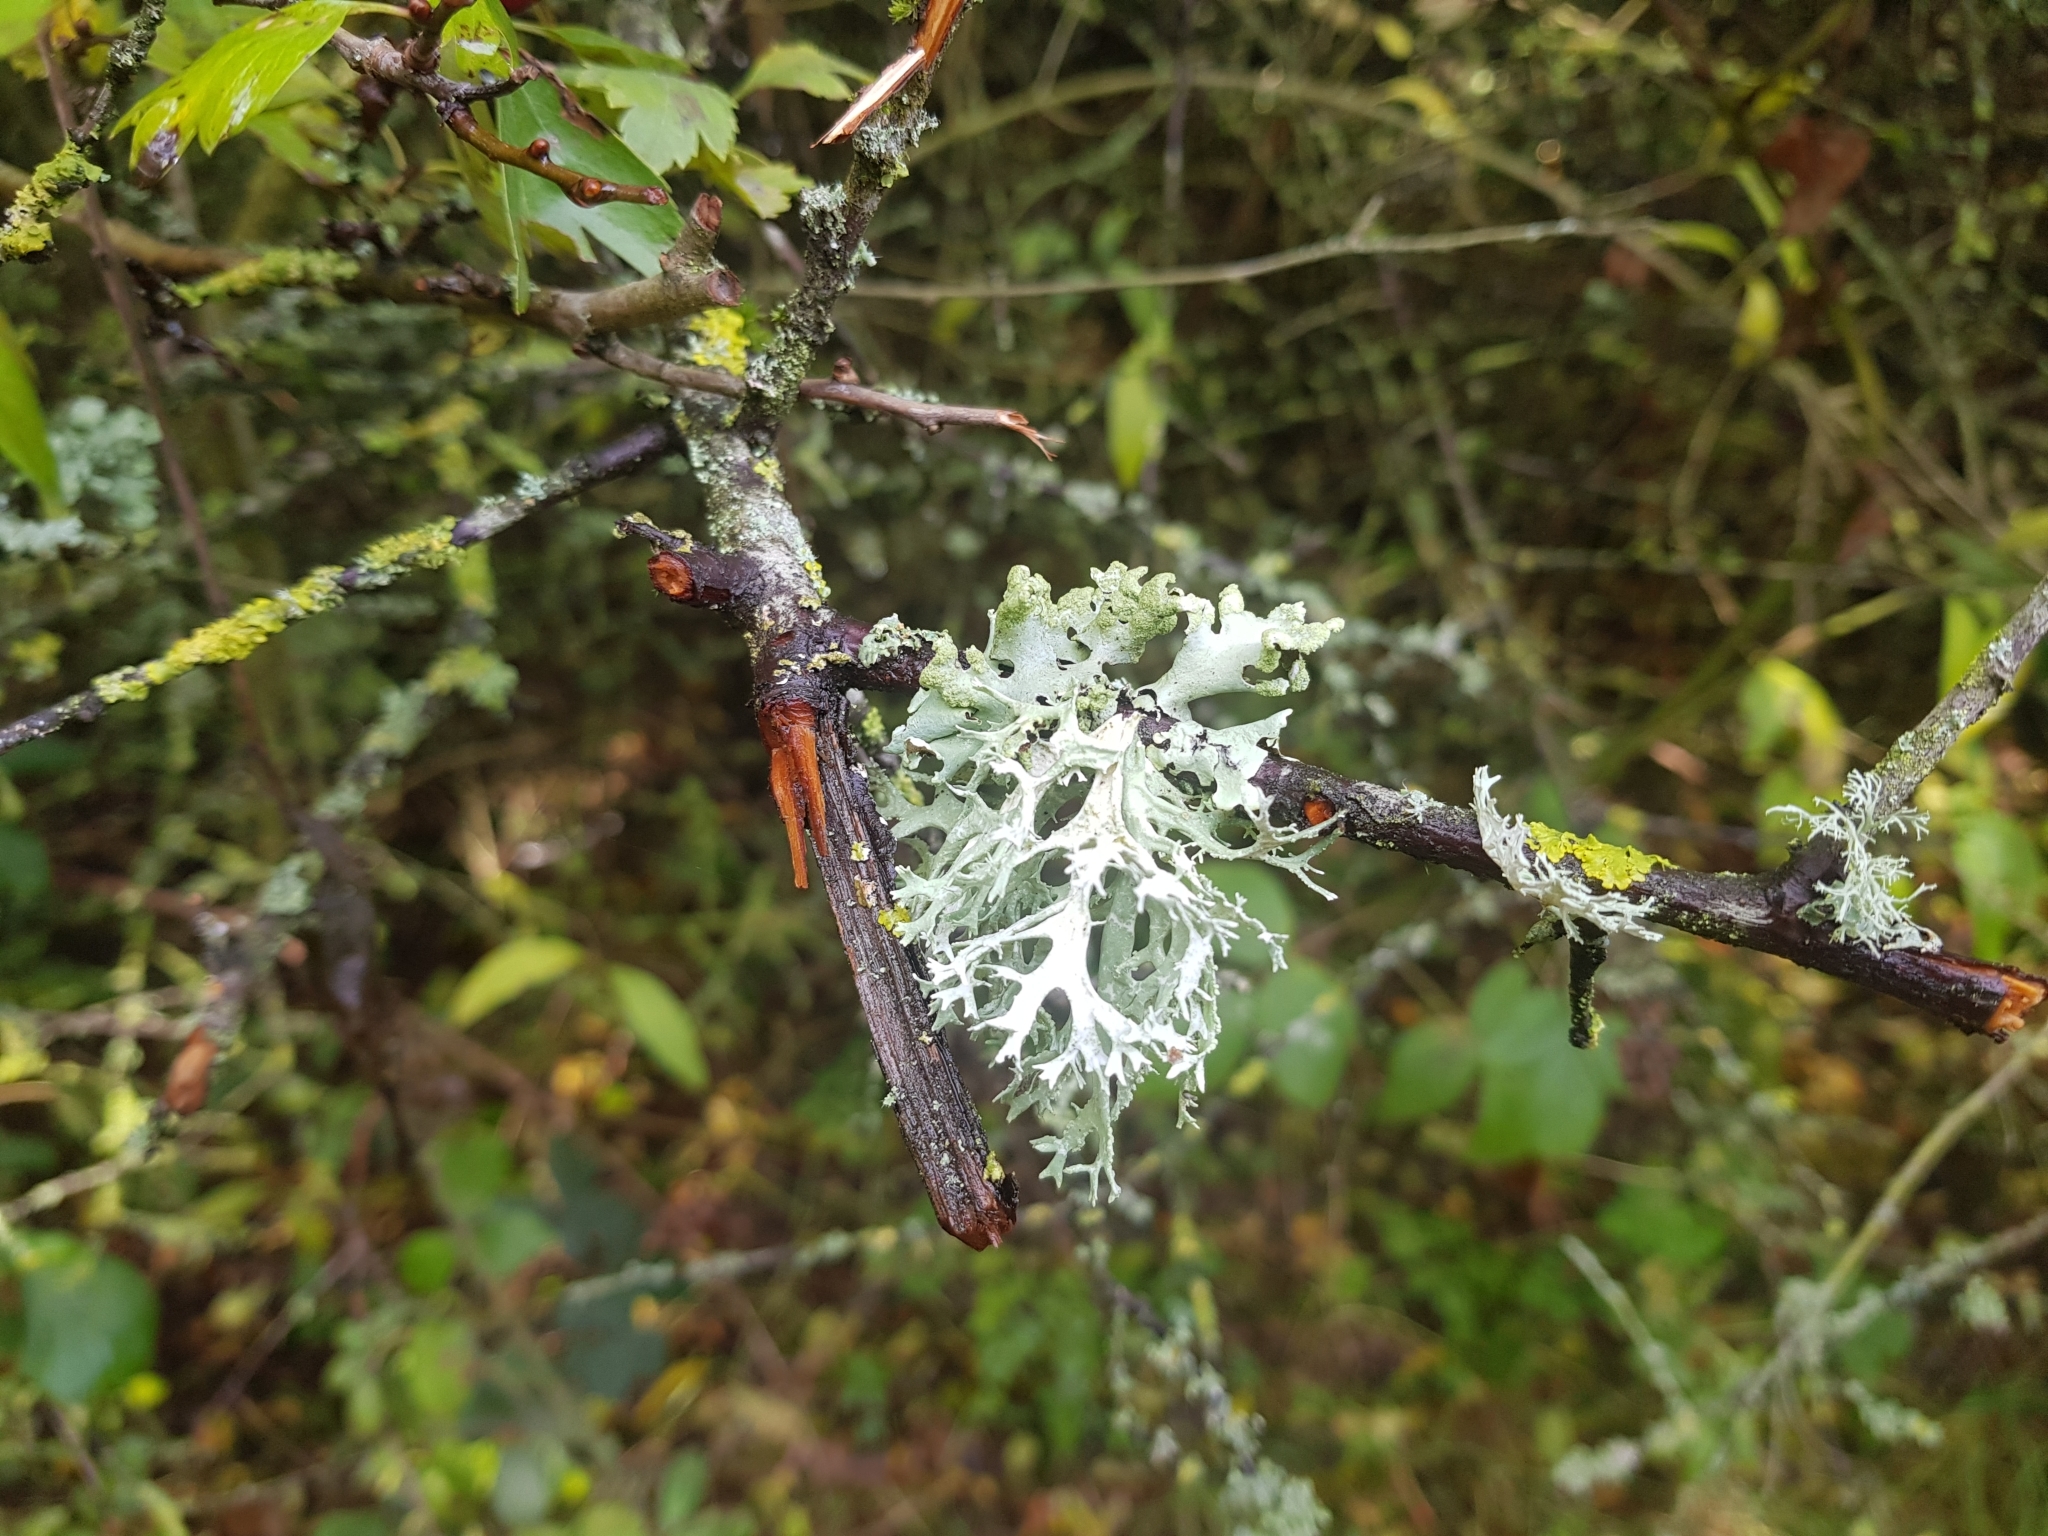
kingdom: Fungi
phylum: Ascomycota
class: Lecanoromycetes
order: Lecanorales
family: Parmeliaceae
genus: Evernia
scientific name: Evernia prunastri
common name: Oak moss
